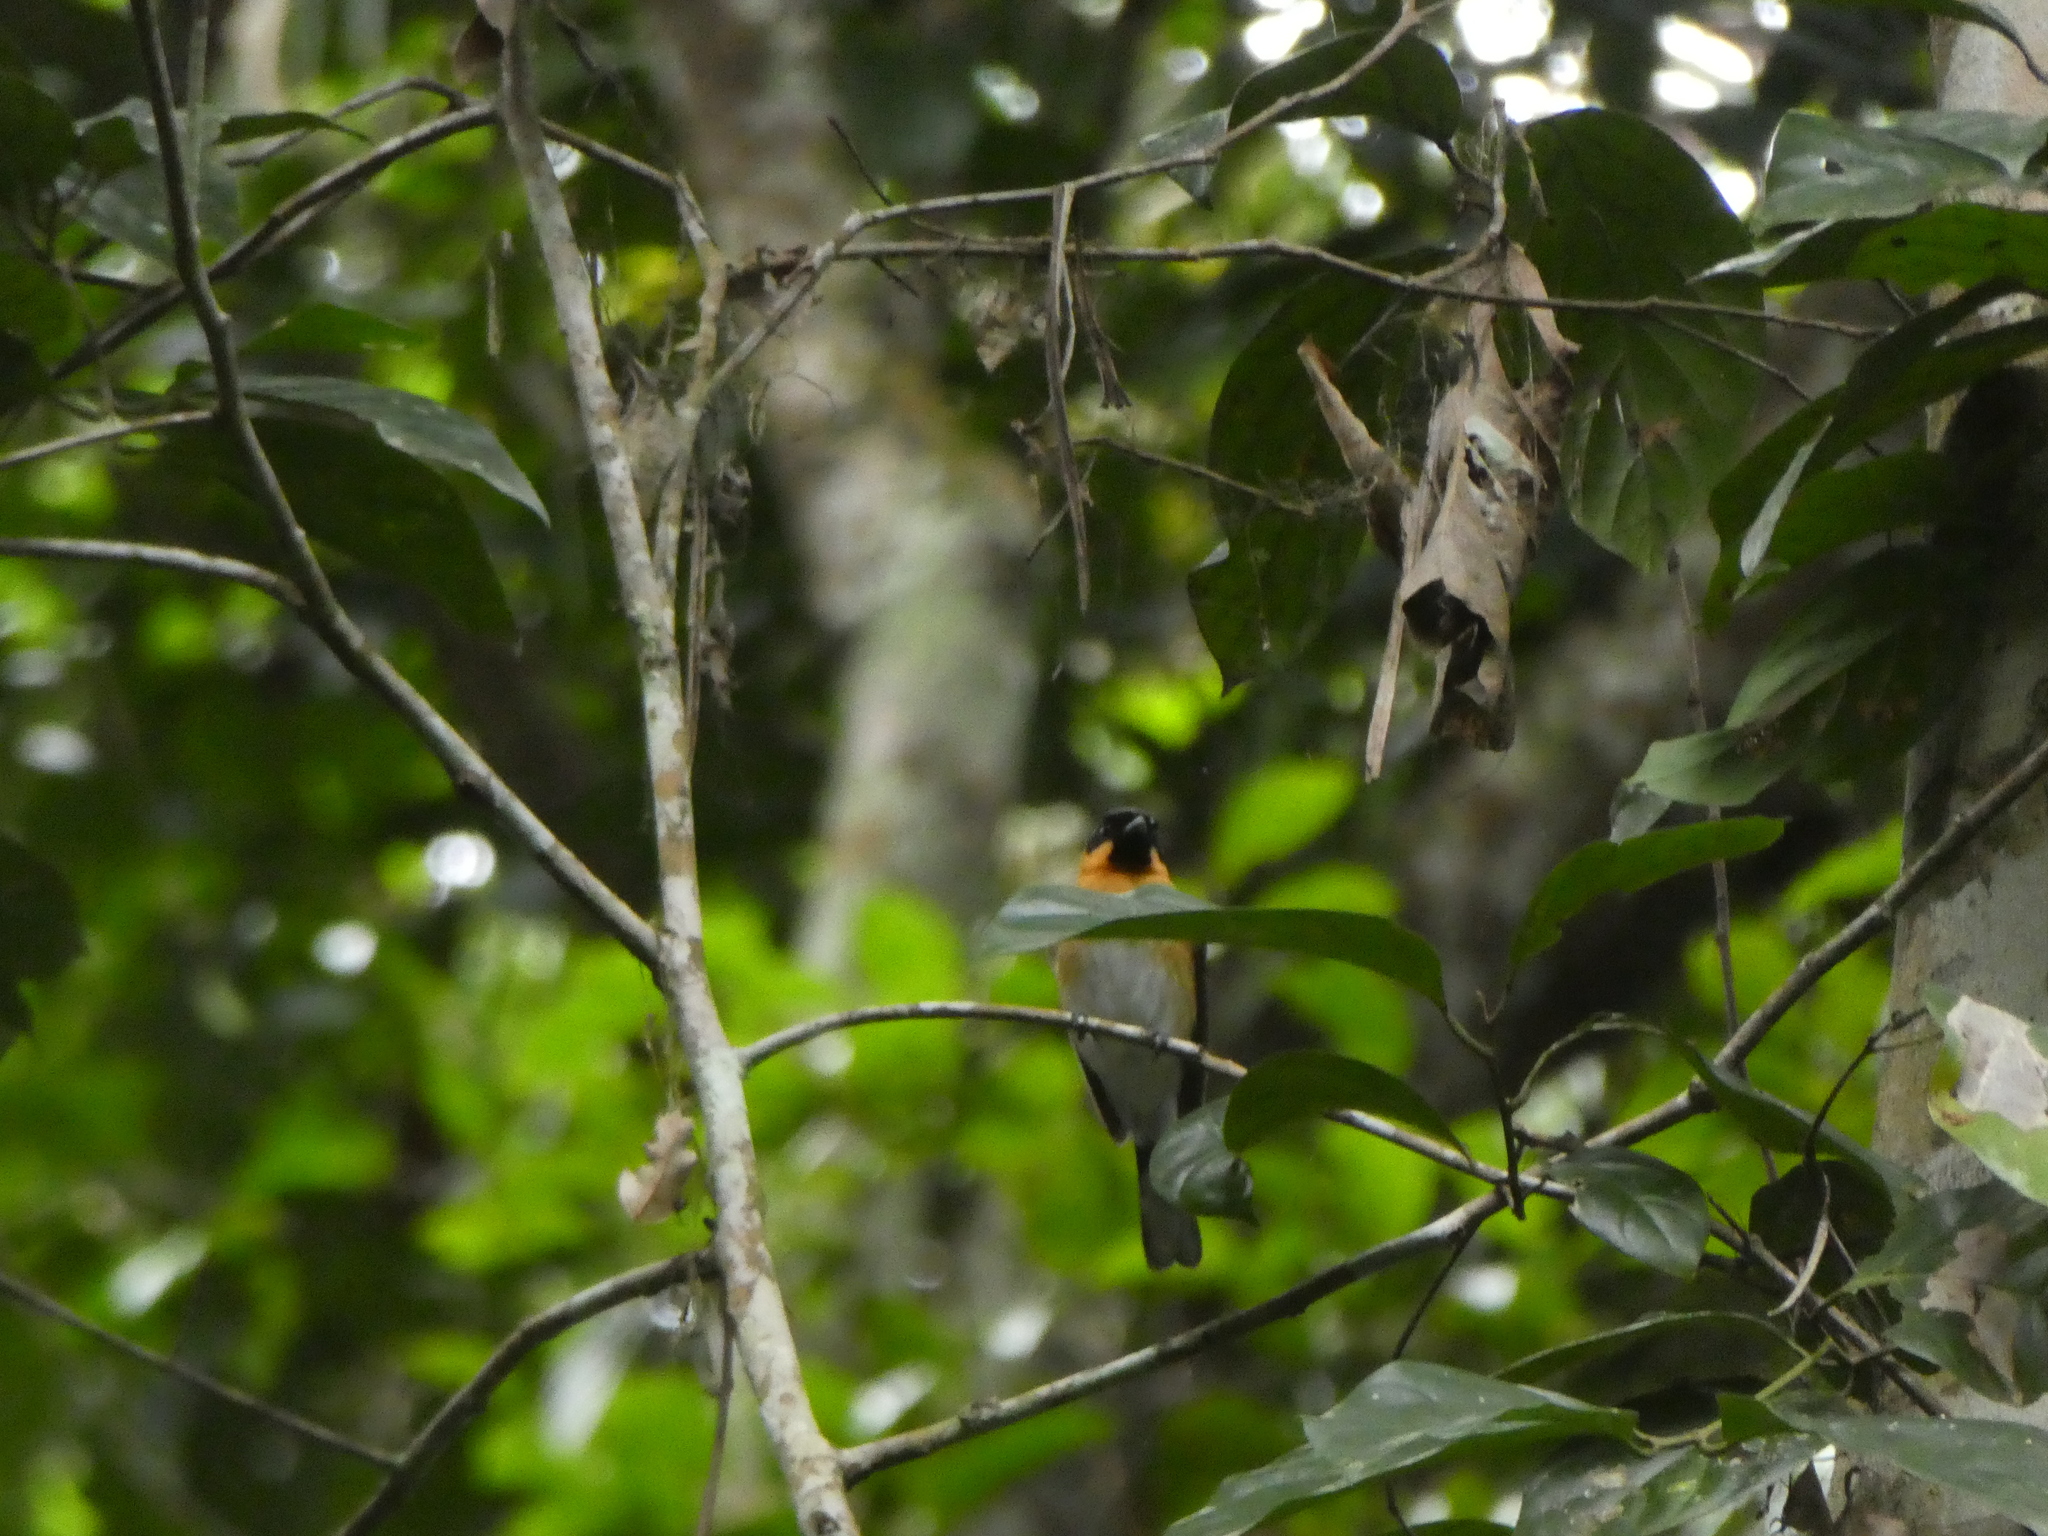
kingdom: Animalia
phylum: Chordata
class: Aves
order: Passeriformes
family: Monarchidae
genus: Symposiachrus
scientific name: Symposiachrus trivirgatus
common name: Spectacled monarch
